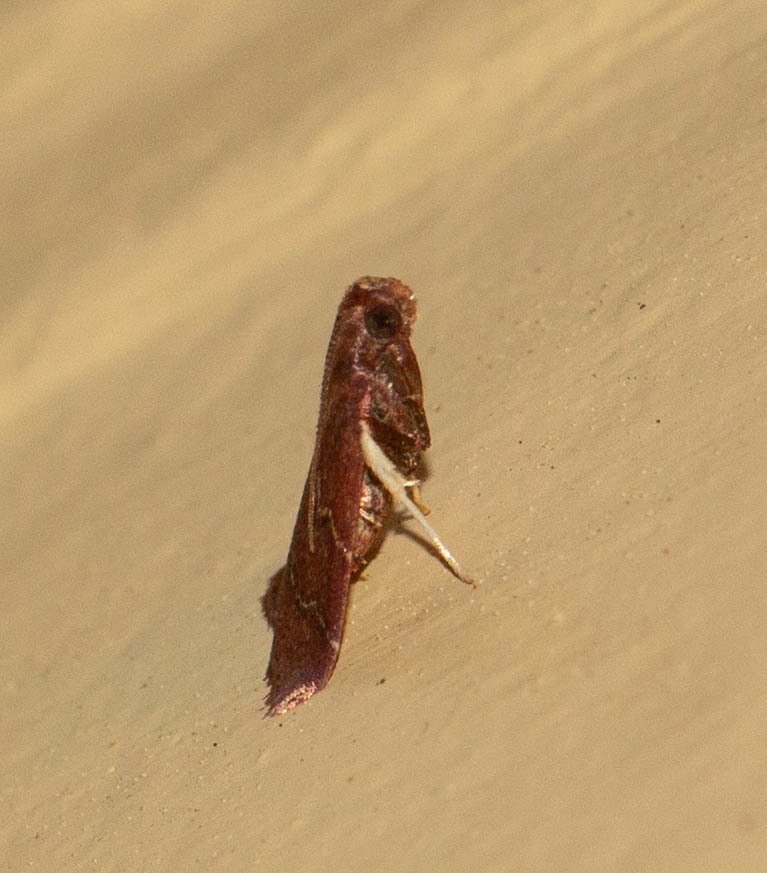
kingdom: Animalia
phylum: Arthropoda
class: Insecta
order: Lepidoptera
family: Pyralidae
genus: Arta
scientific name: Arta
